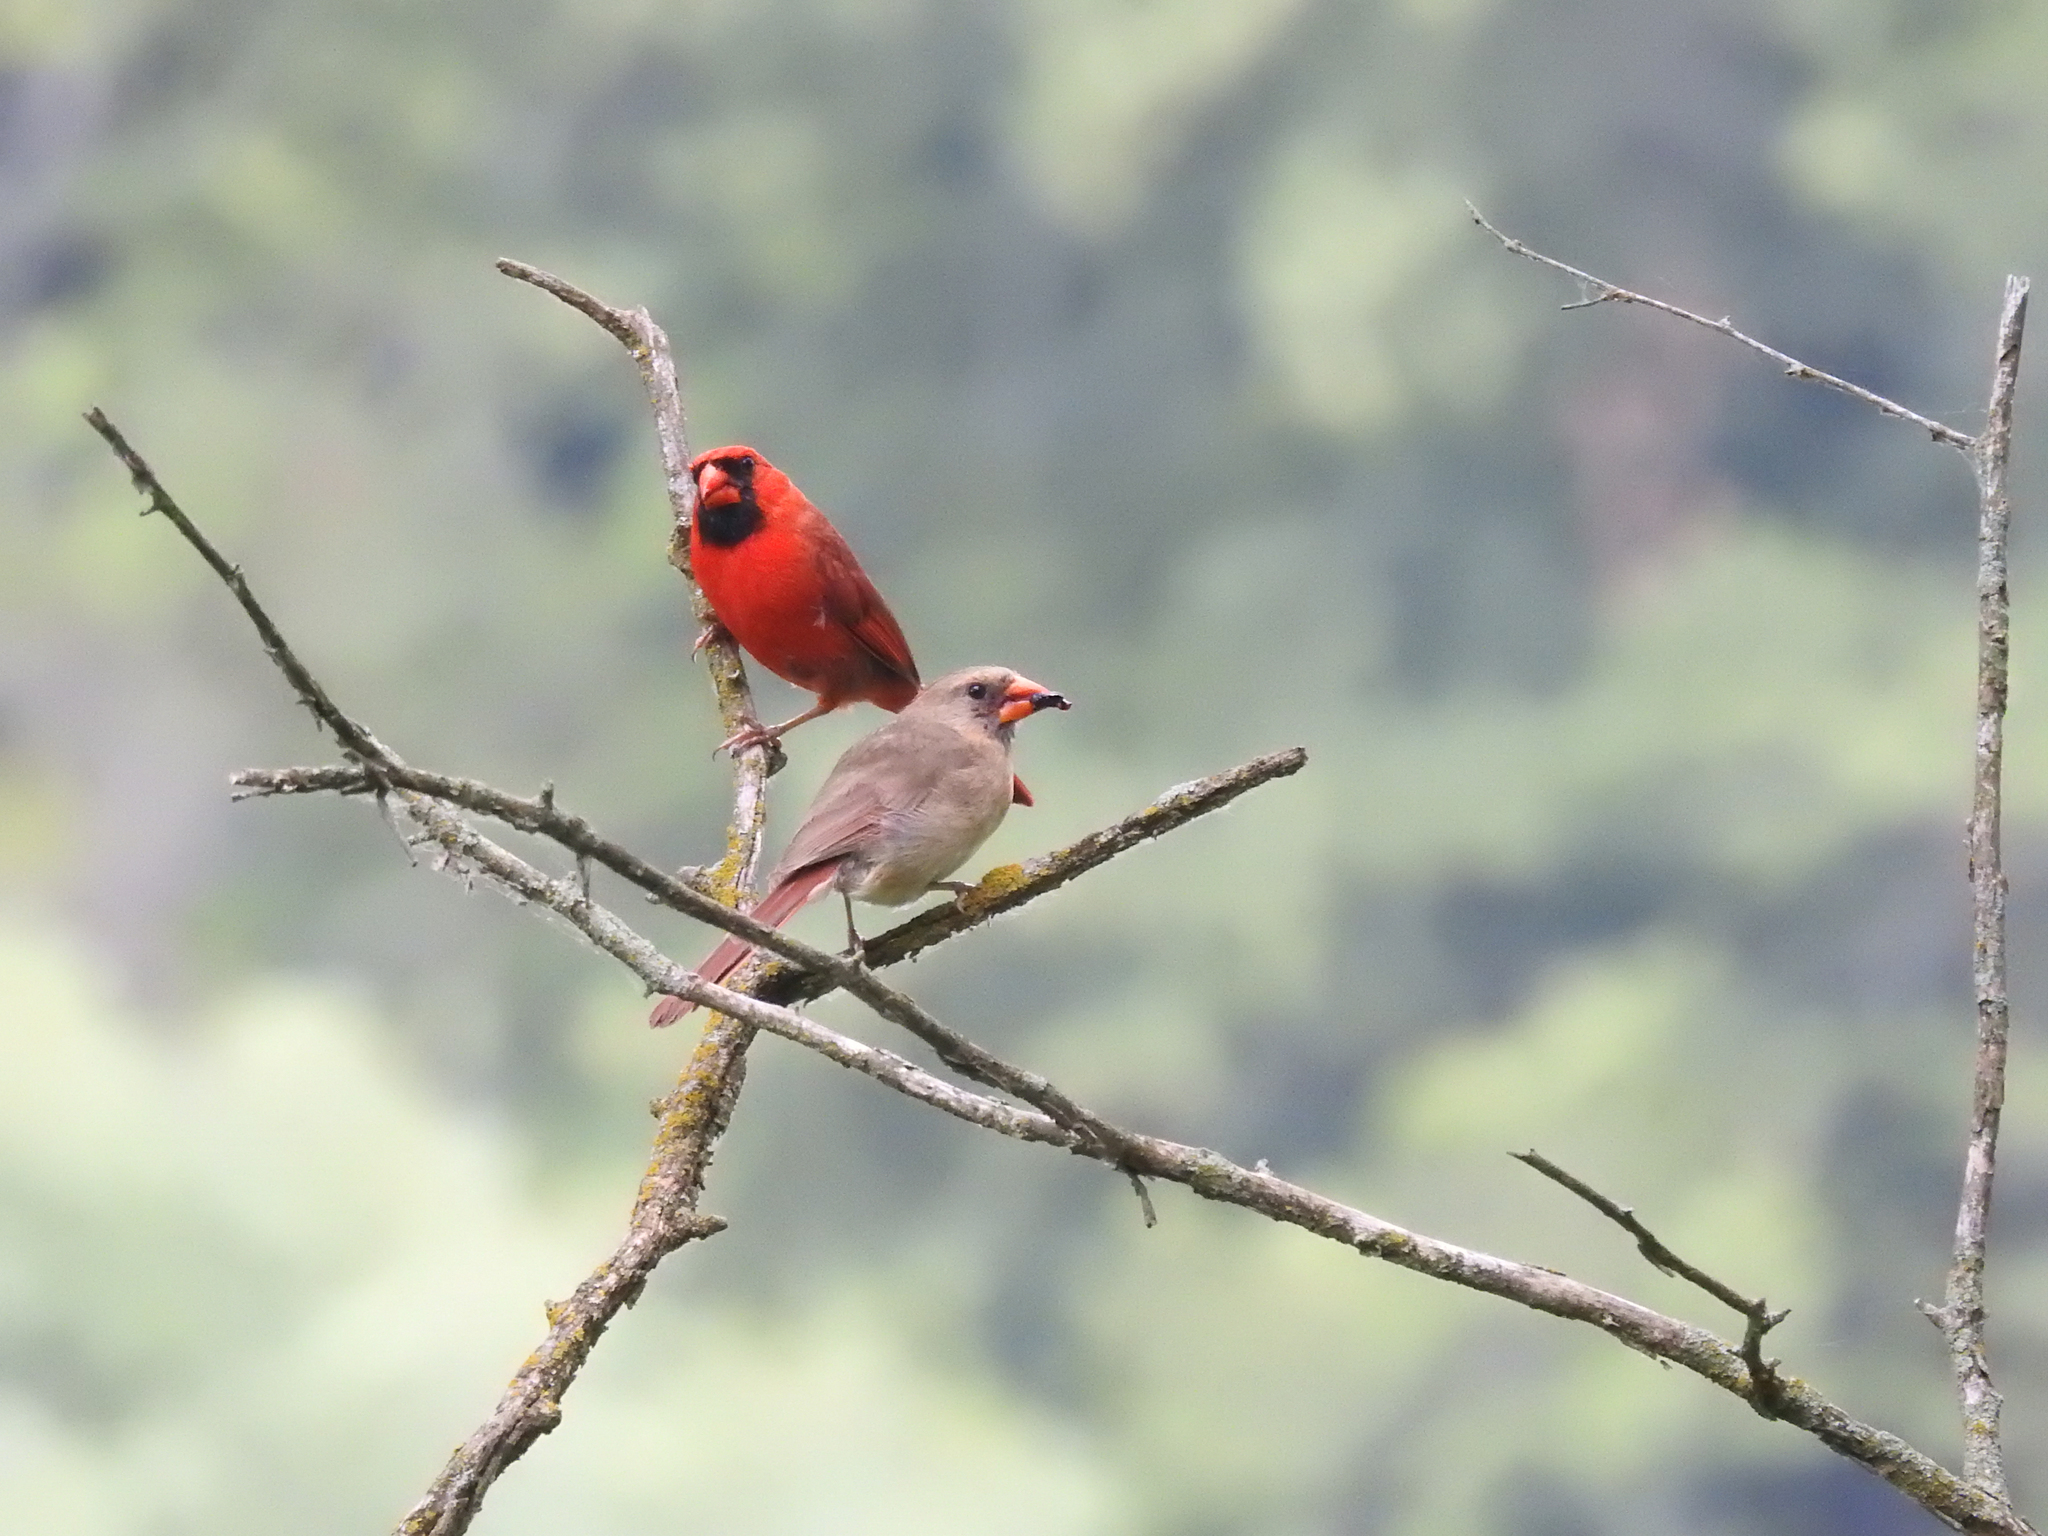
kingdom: Animalia
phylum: Chordata
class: Aves
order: Passeriformes
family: Cardinalidae
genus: Cardinalis
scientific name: Cardinalis cardinalis
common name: Northern cardinal
